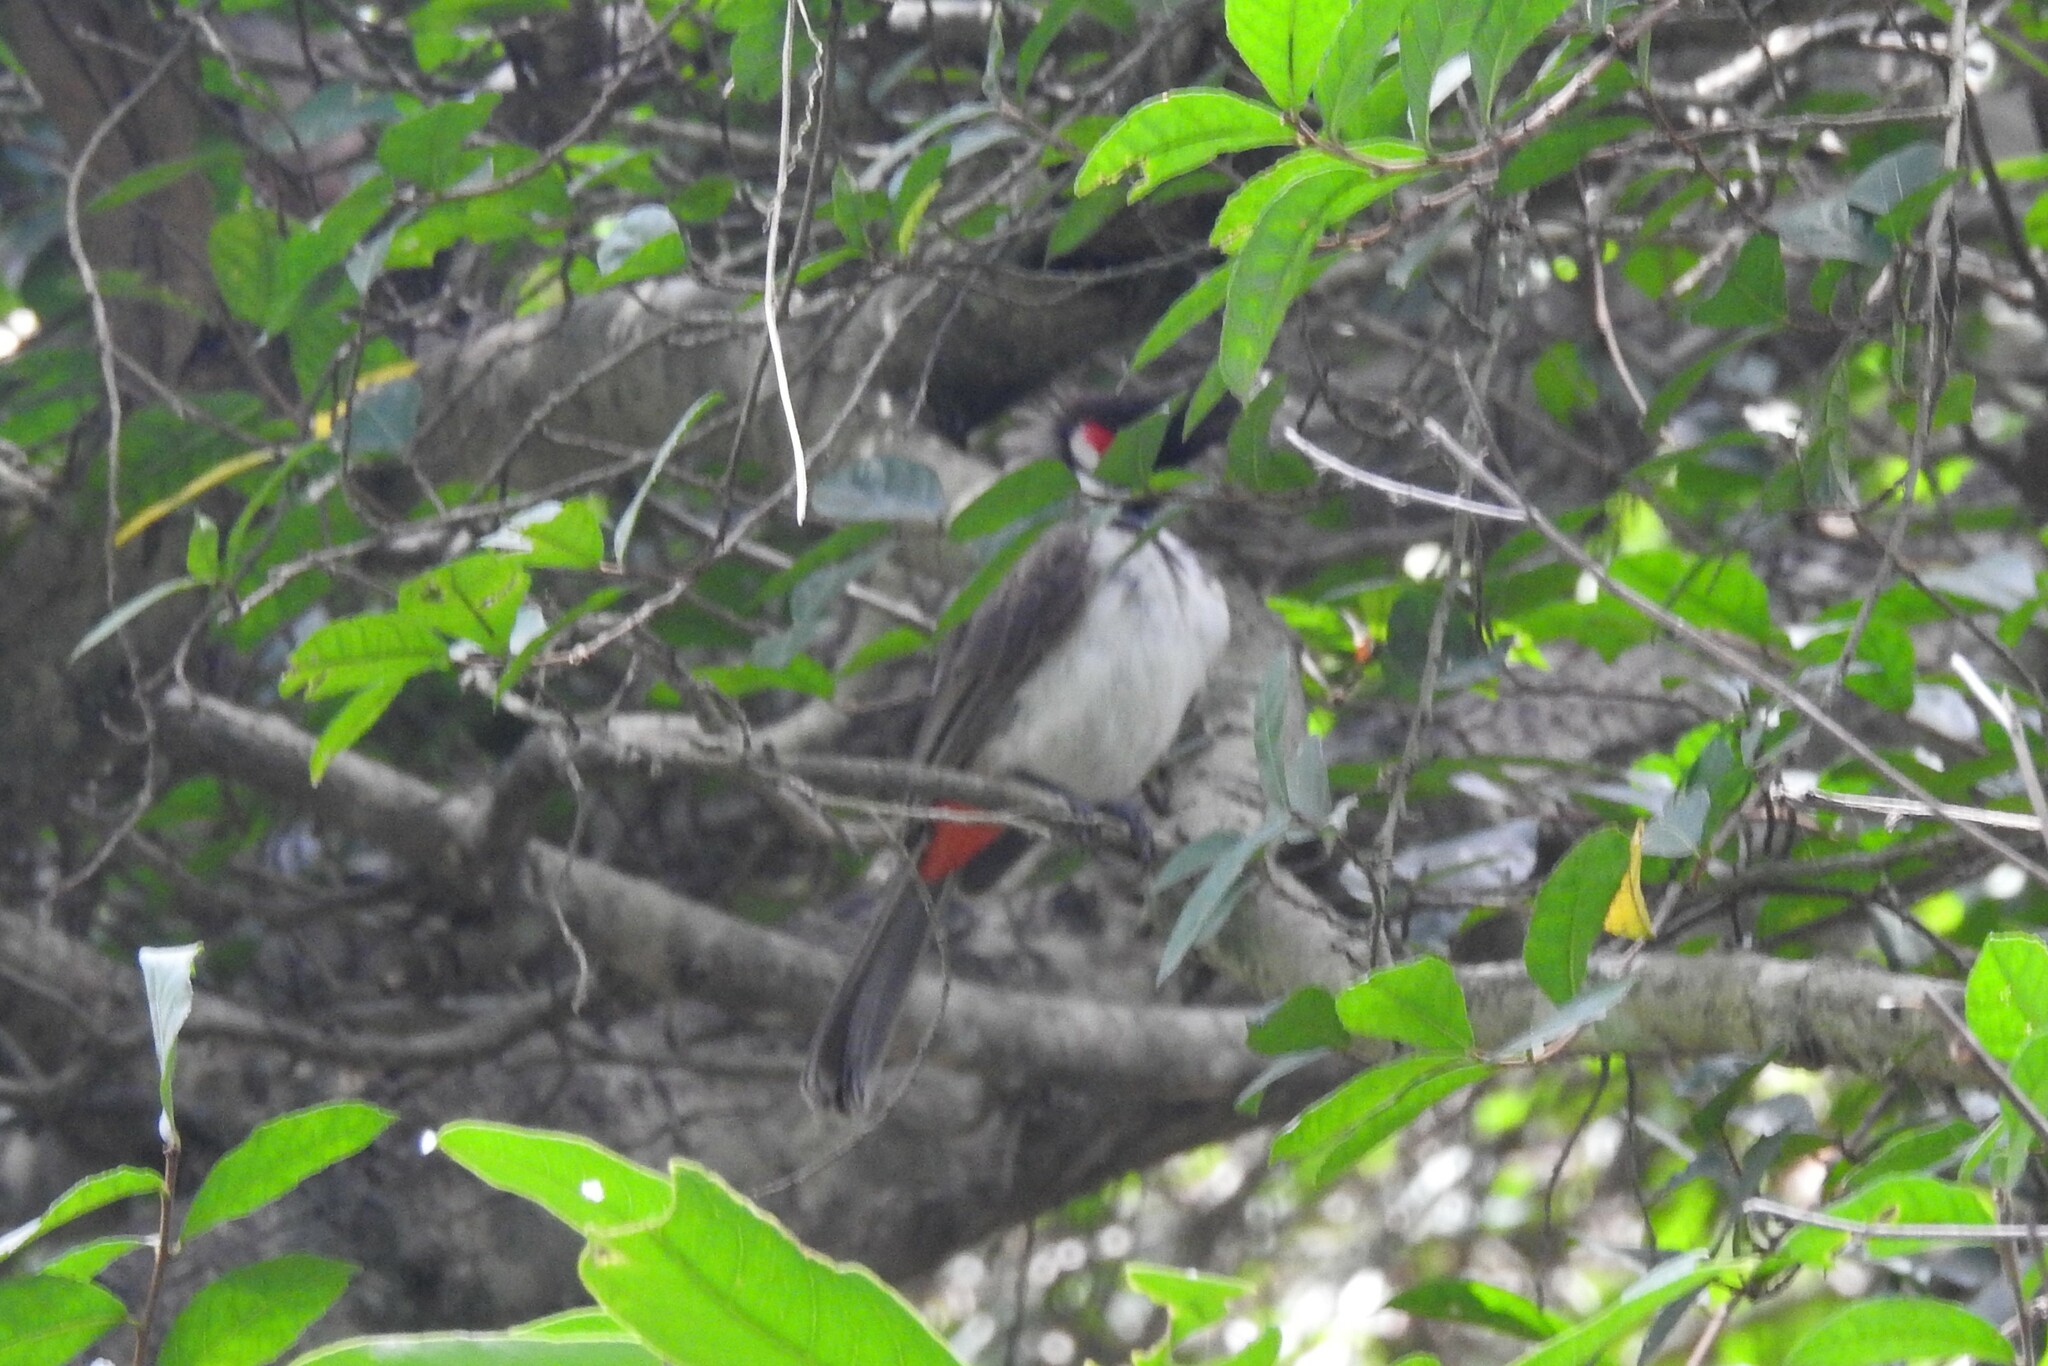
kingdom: Animalia
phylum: Chordata
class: Aves
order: Passeriformes
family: Pycnonotidae
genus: Pycnonotus
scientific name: Pycnonotus jocosus
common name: Red-whiskered bulbul
